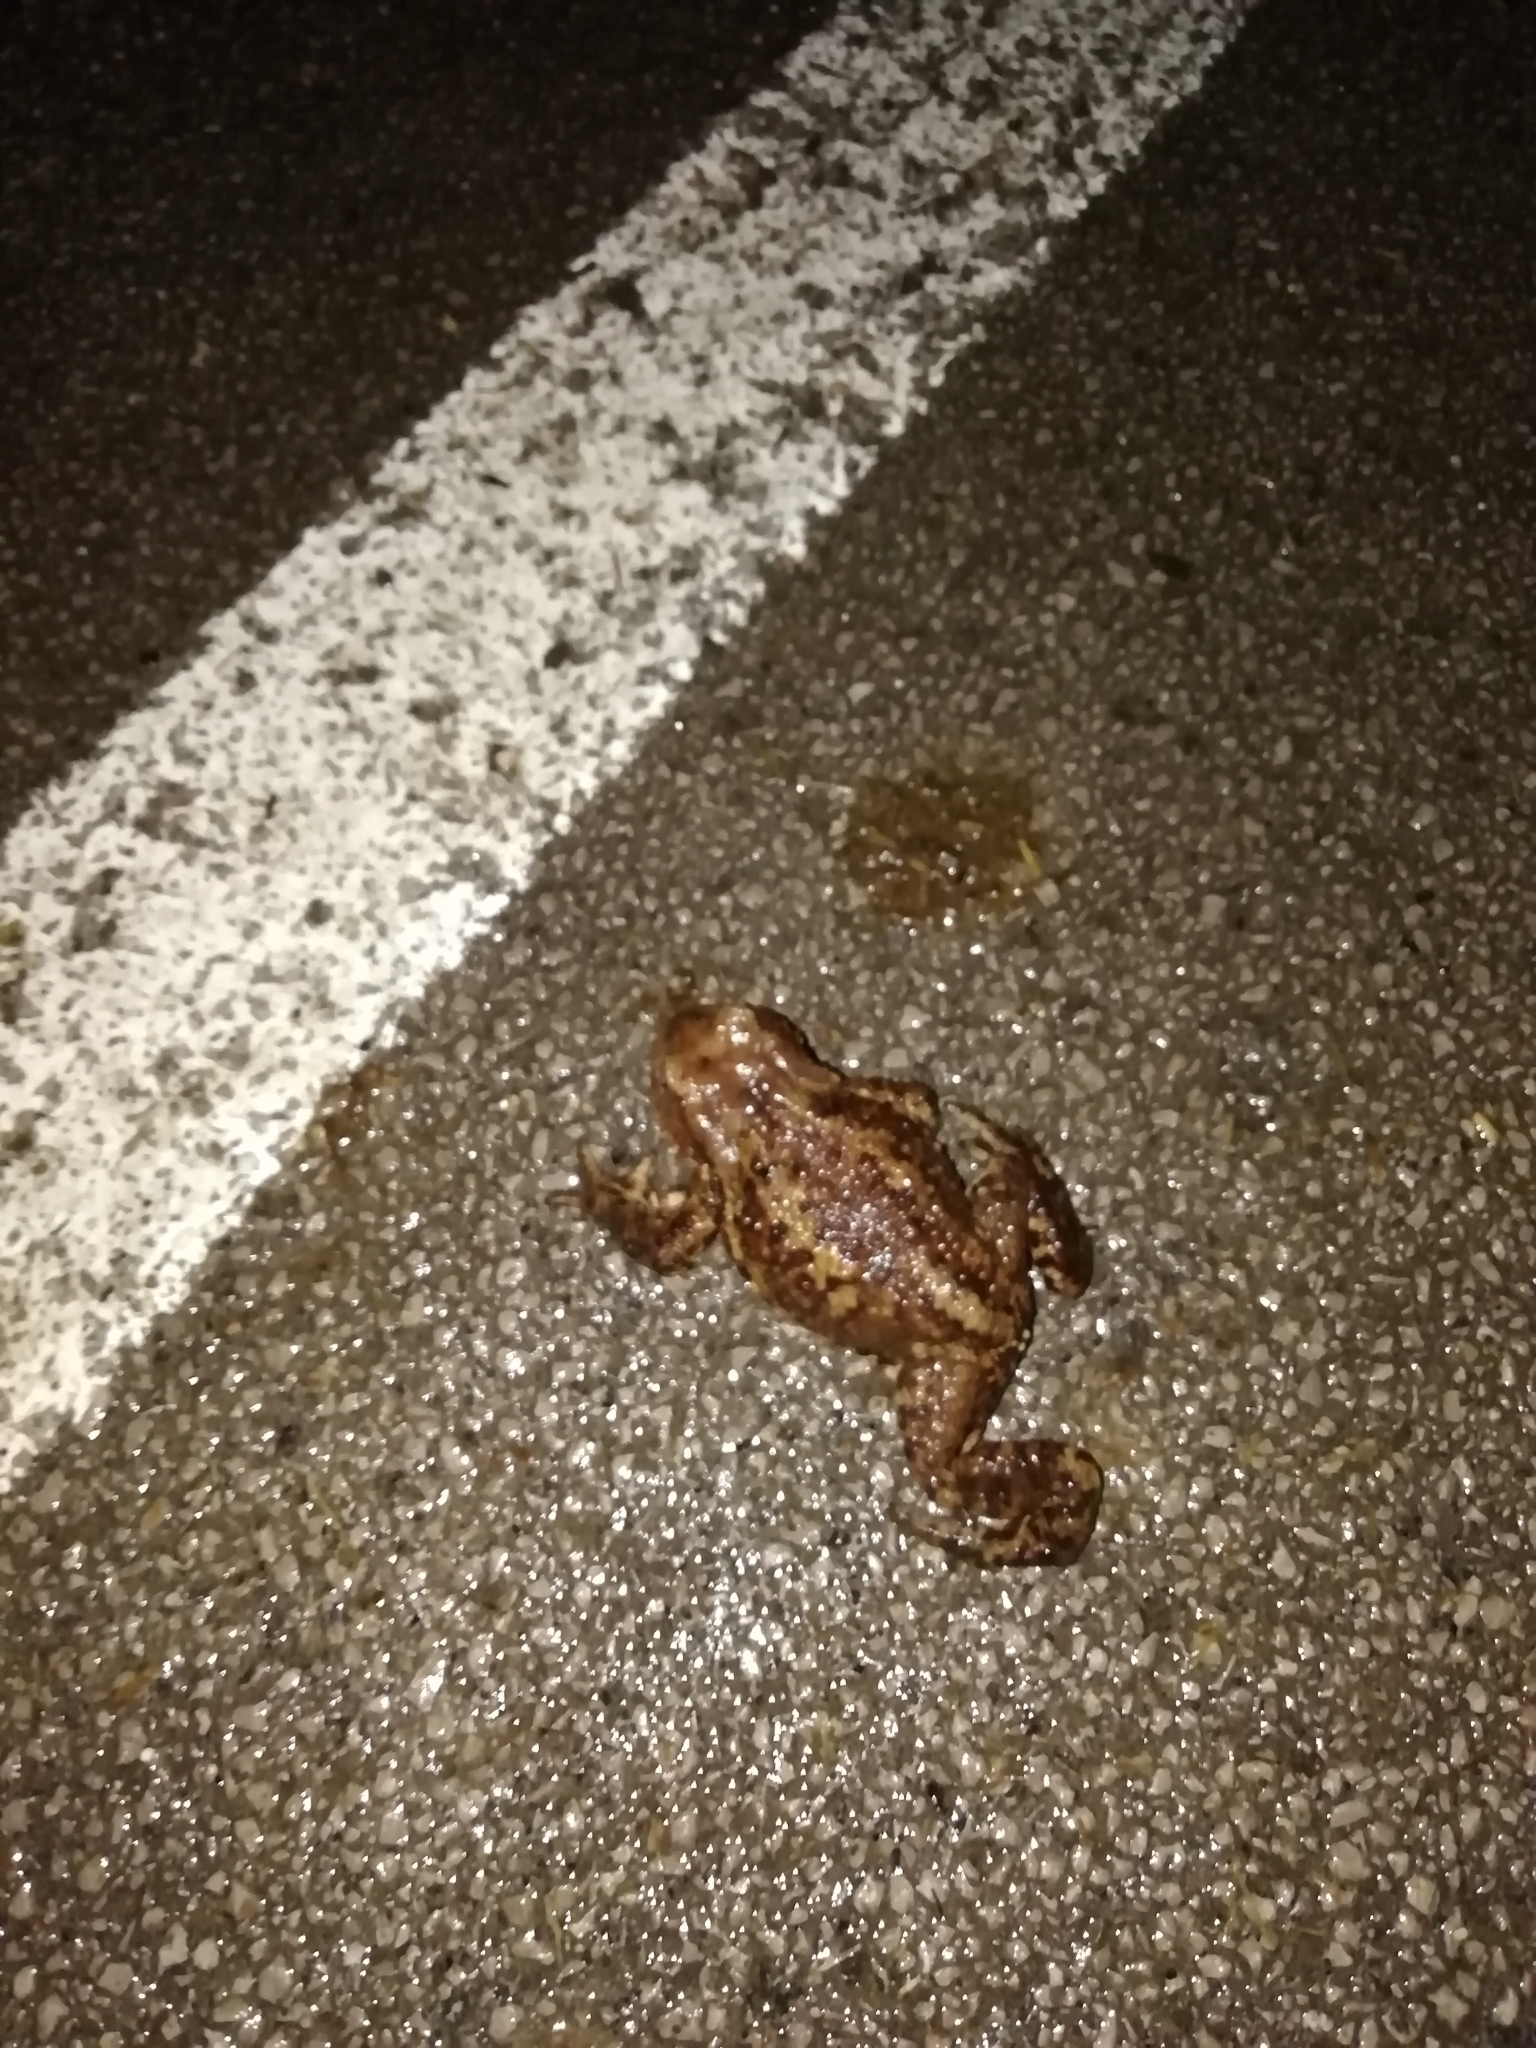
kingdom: Animalia
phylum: Chordata
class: Amphibia
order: Anura
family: Bufonidae
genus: Bufo
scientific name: Bufo bufo
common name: Common toad
